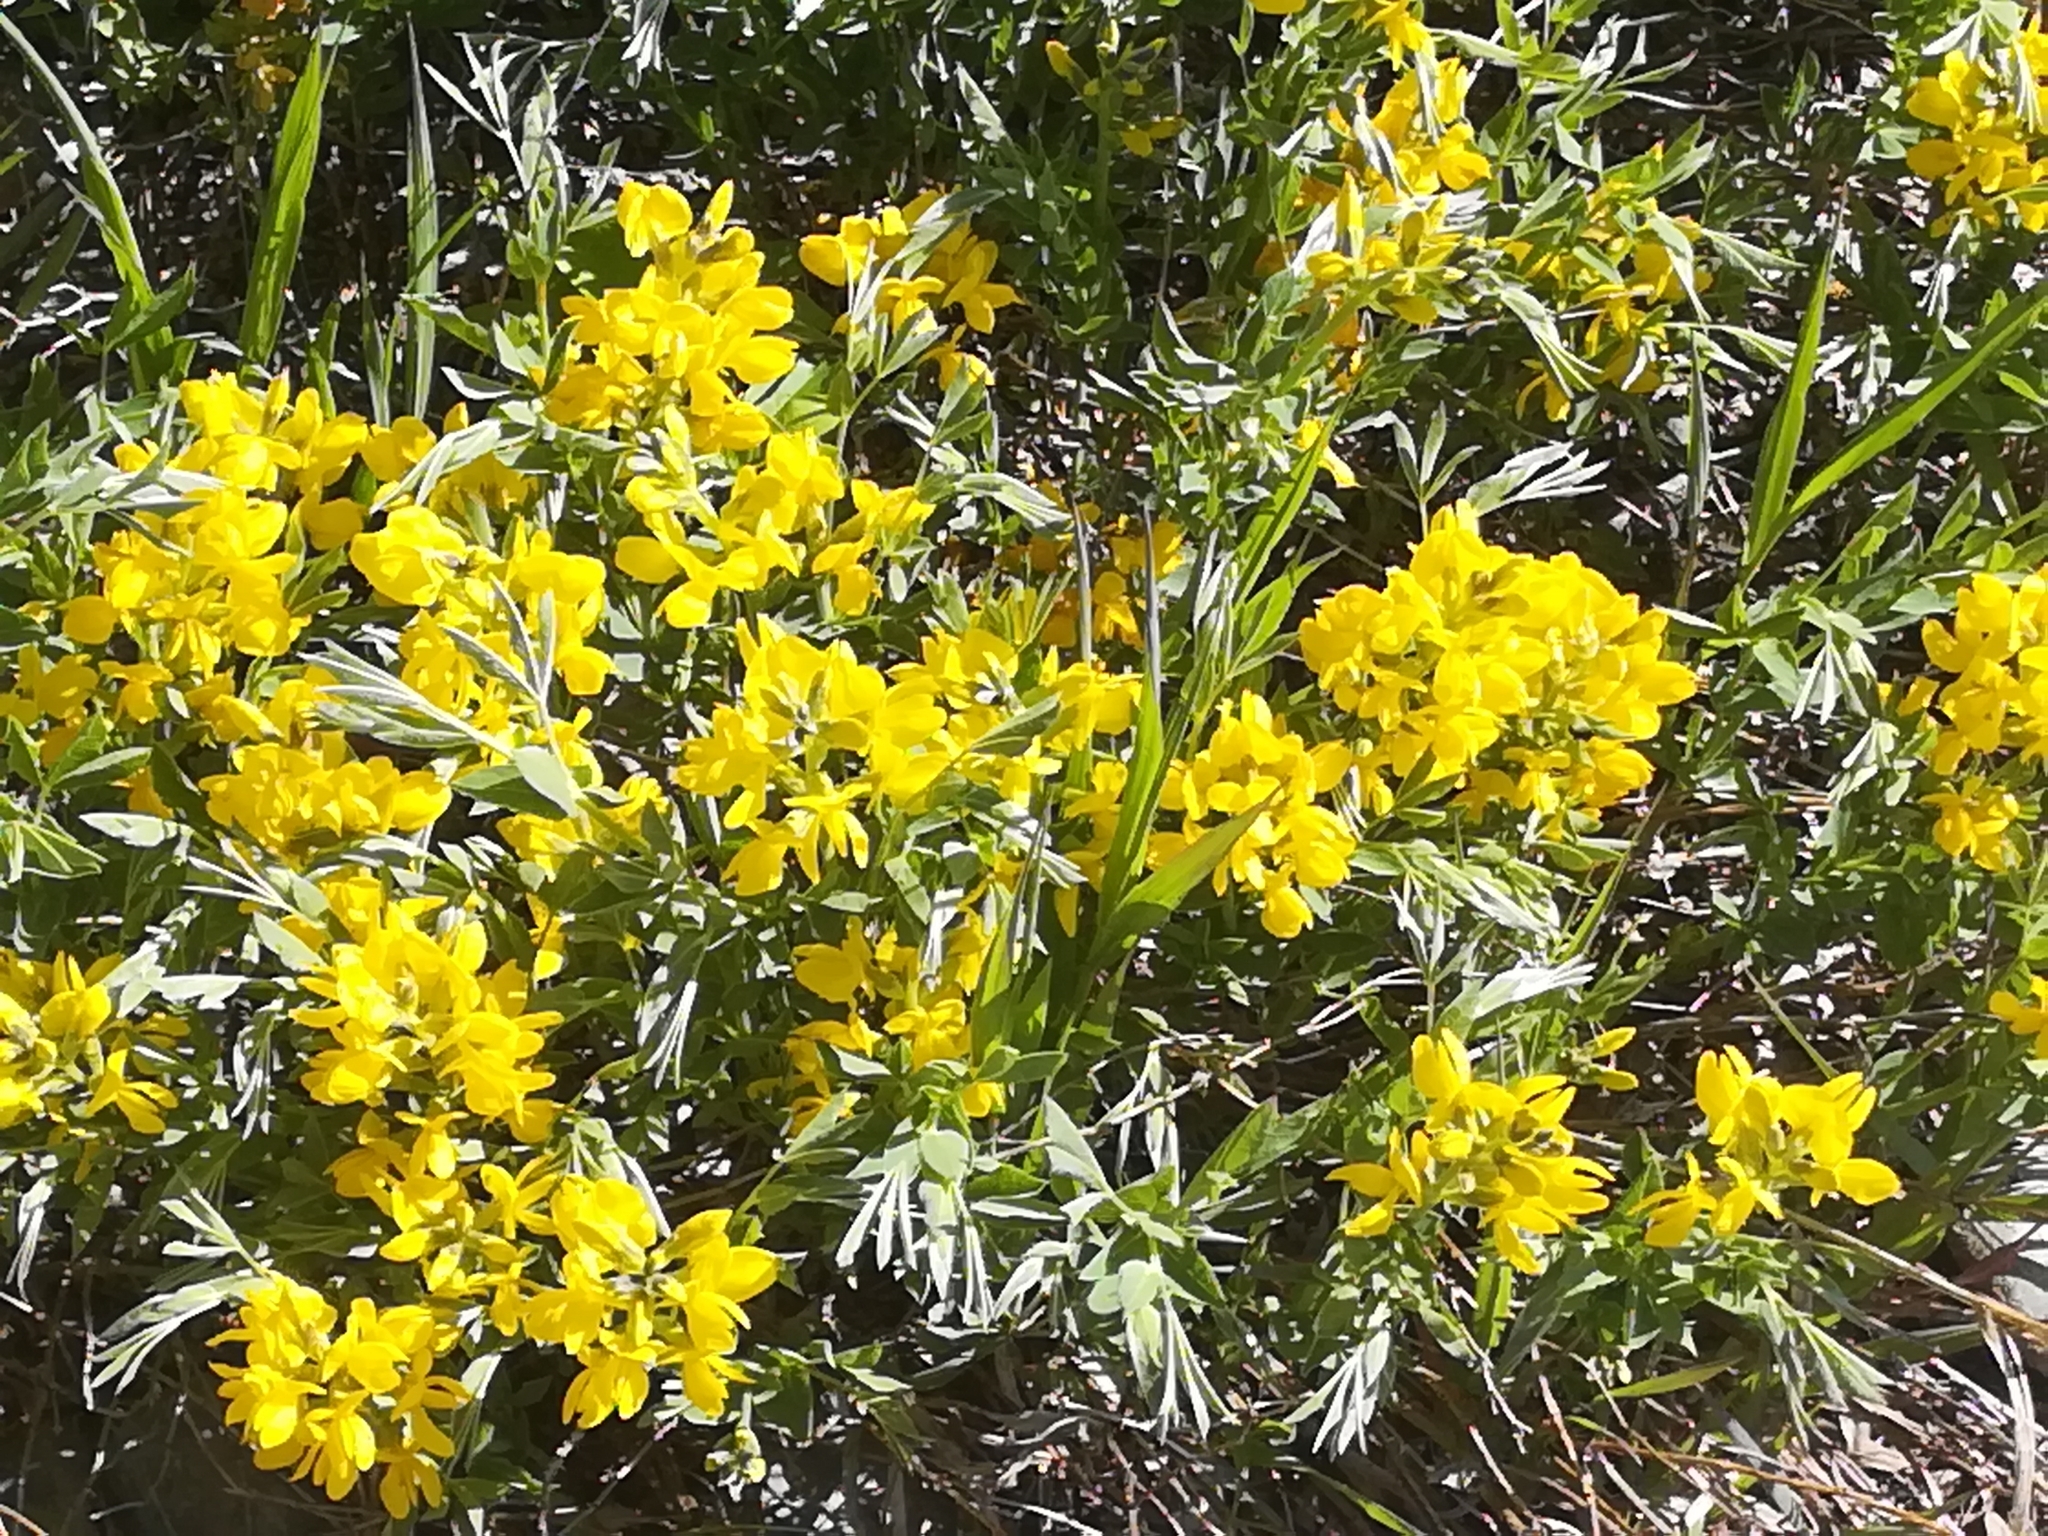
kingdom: Plantae
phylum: Tracheophyta
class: Magnoliopsida
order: Fabales
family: Fabaceae
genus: Thermopsis
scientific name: Thermopsis rhombifolia
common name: Circle-pod-pea
